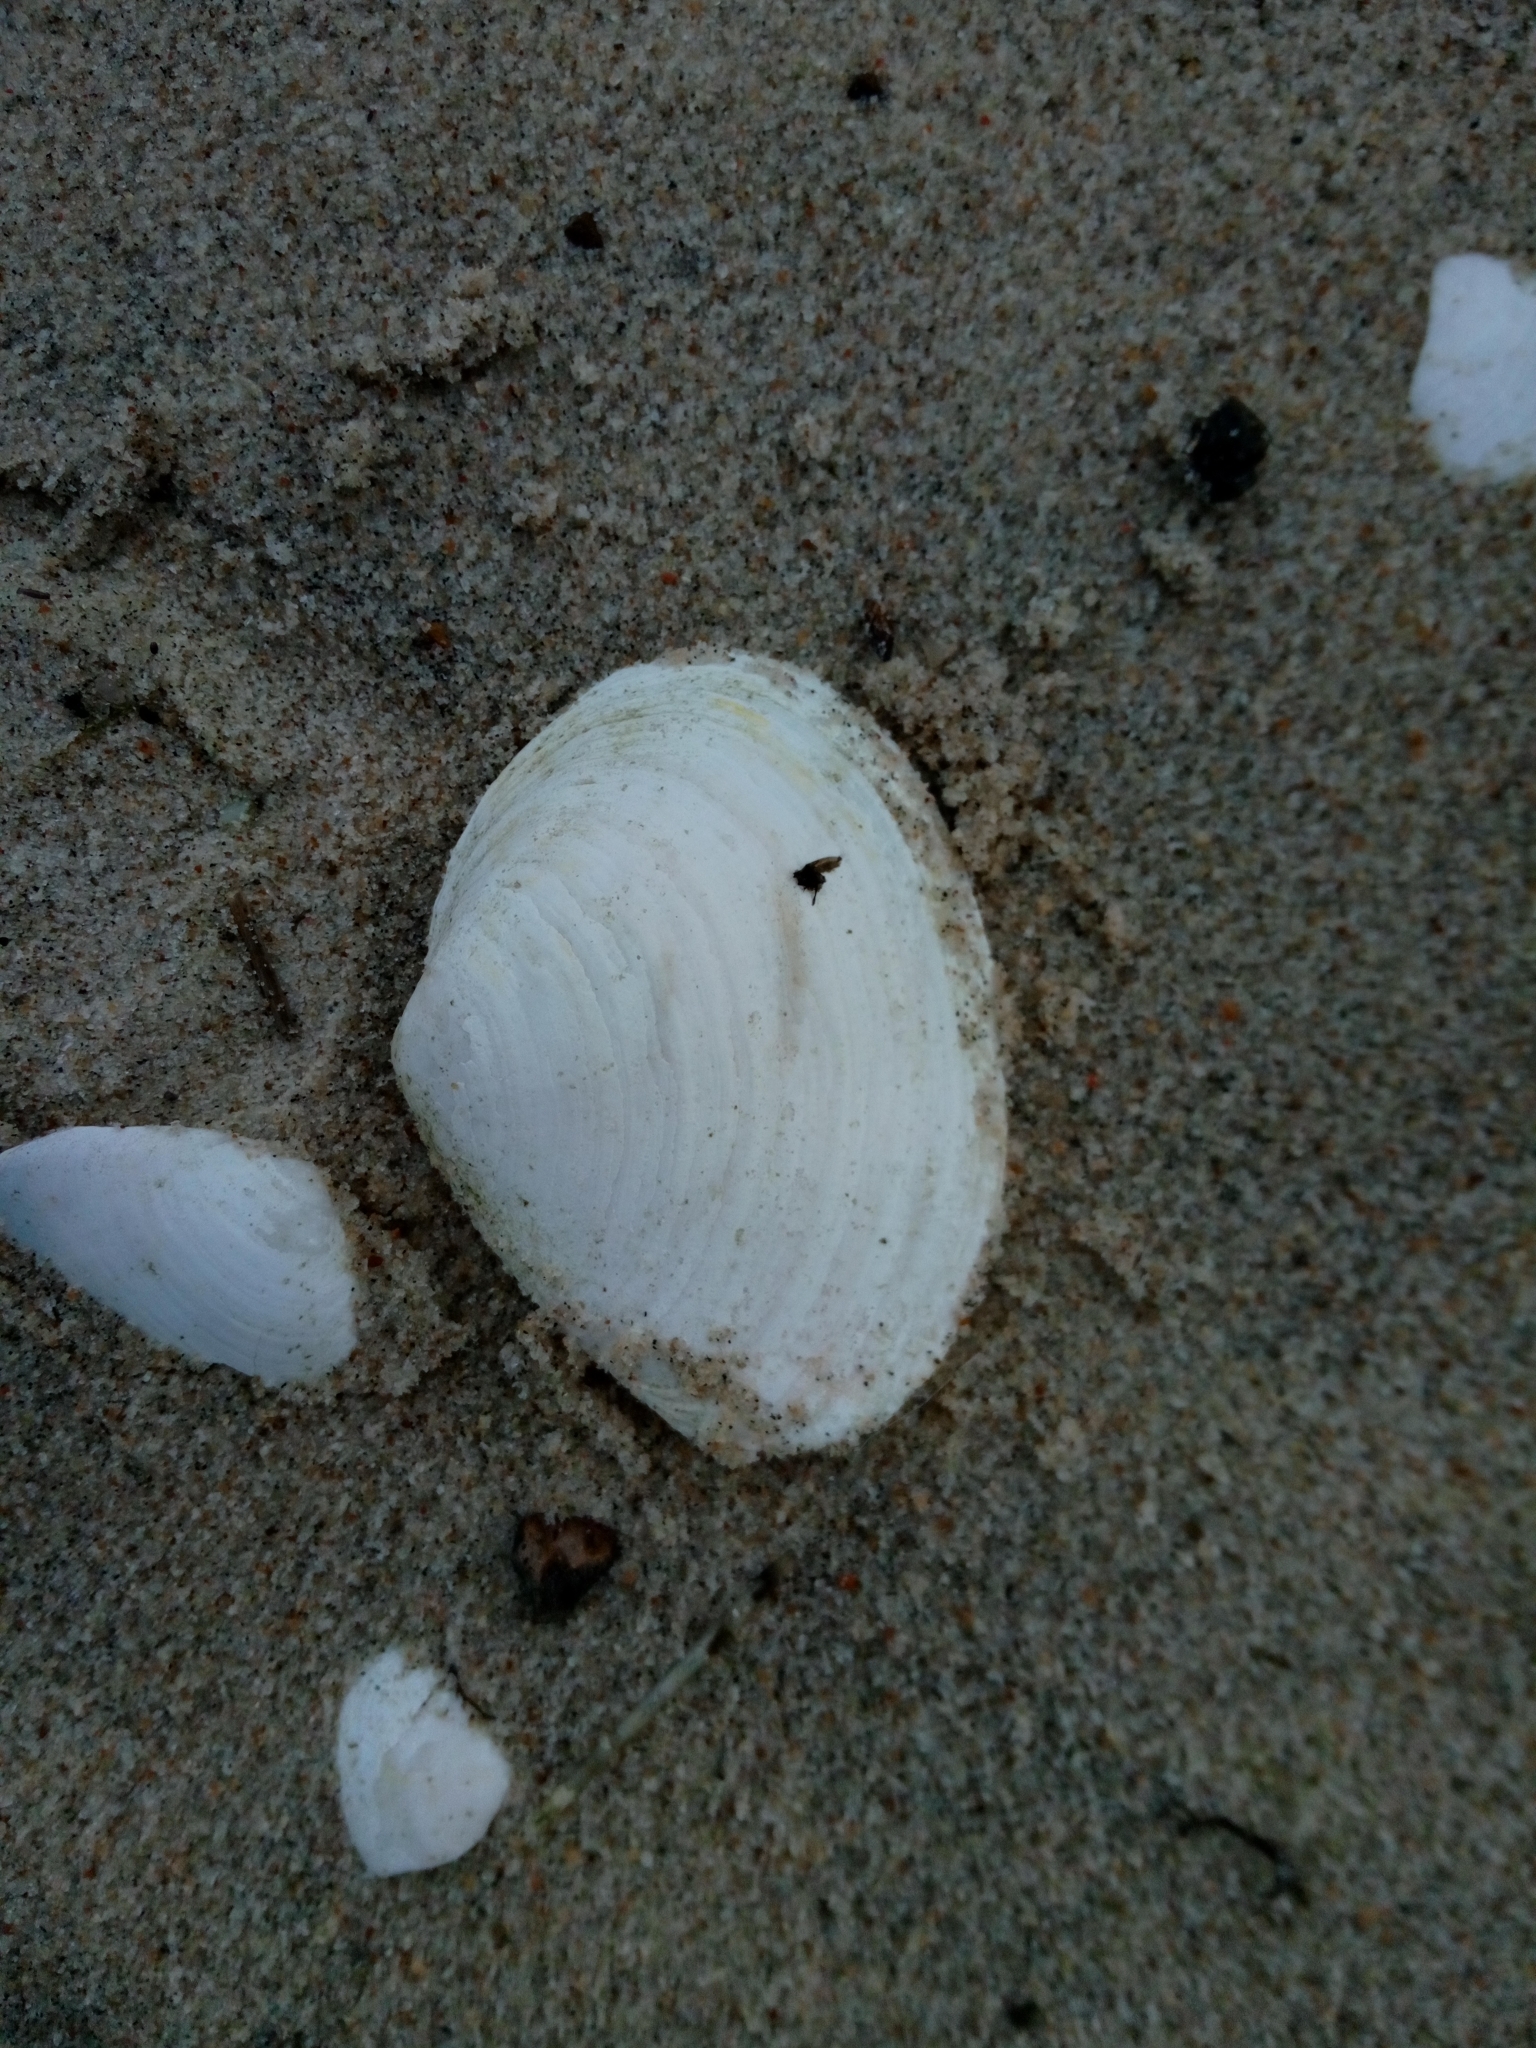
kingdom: Animalia
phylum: Mollusca
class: Bivalvia
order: Myida
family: Myidae
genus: Mya
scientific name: Mya arenaria
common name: Soft-shelled clam
